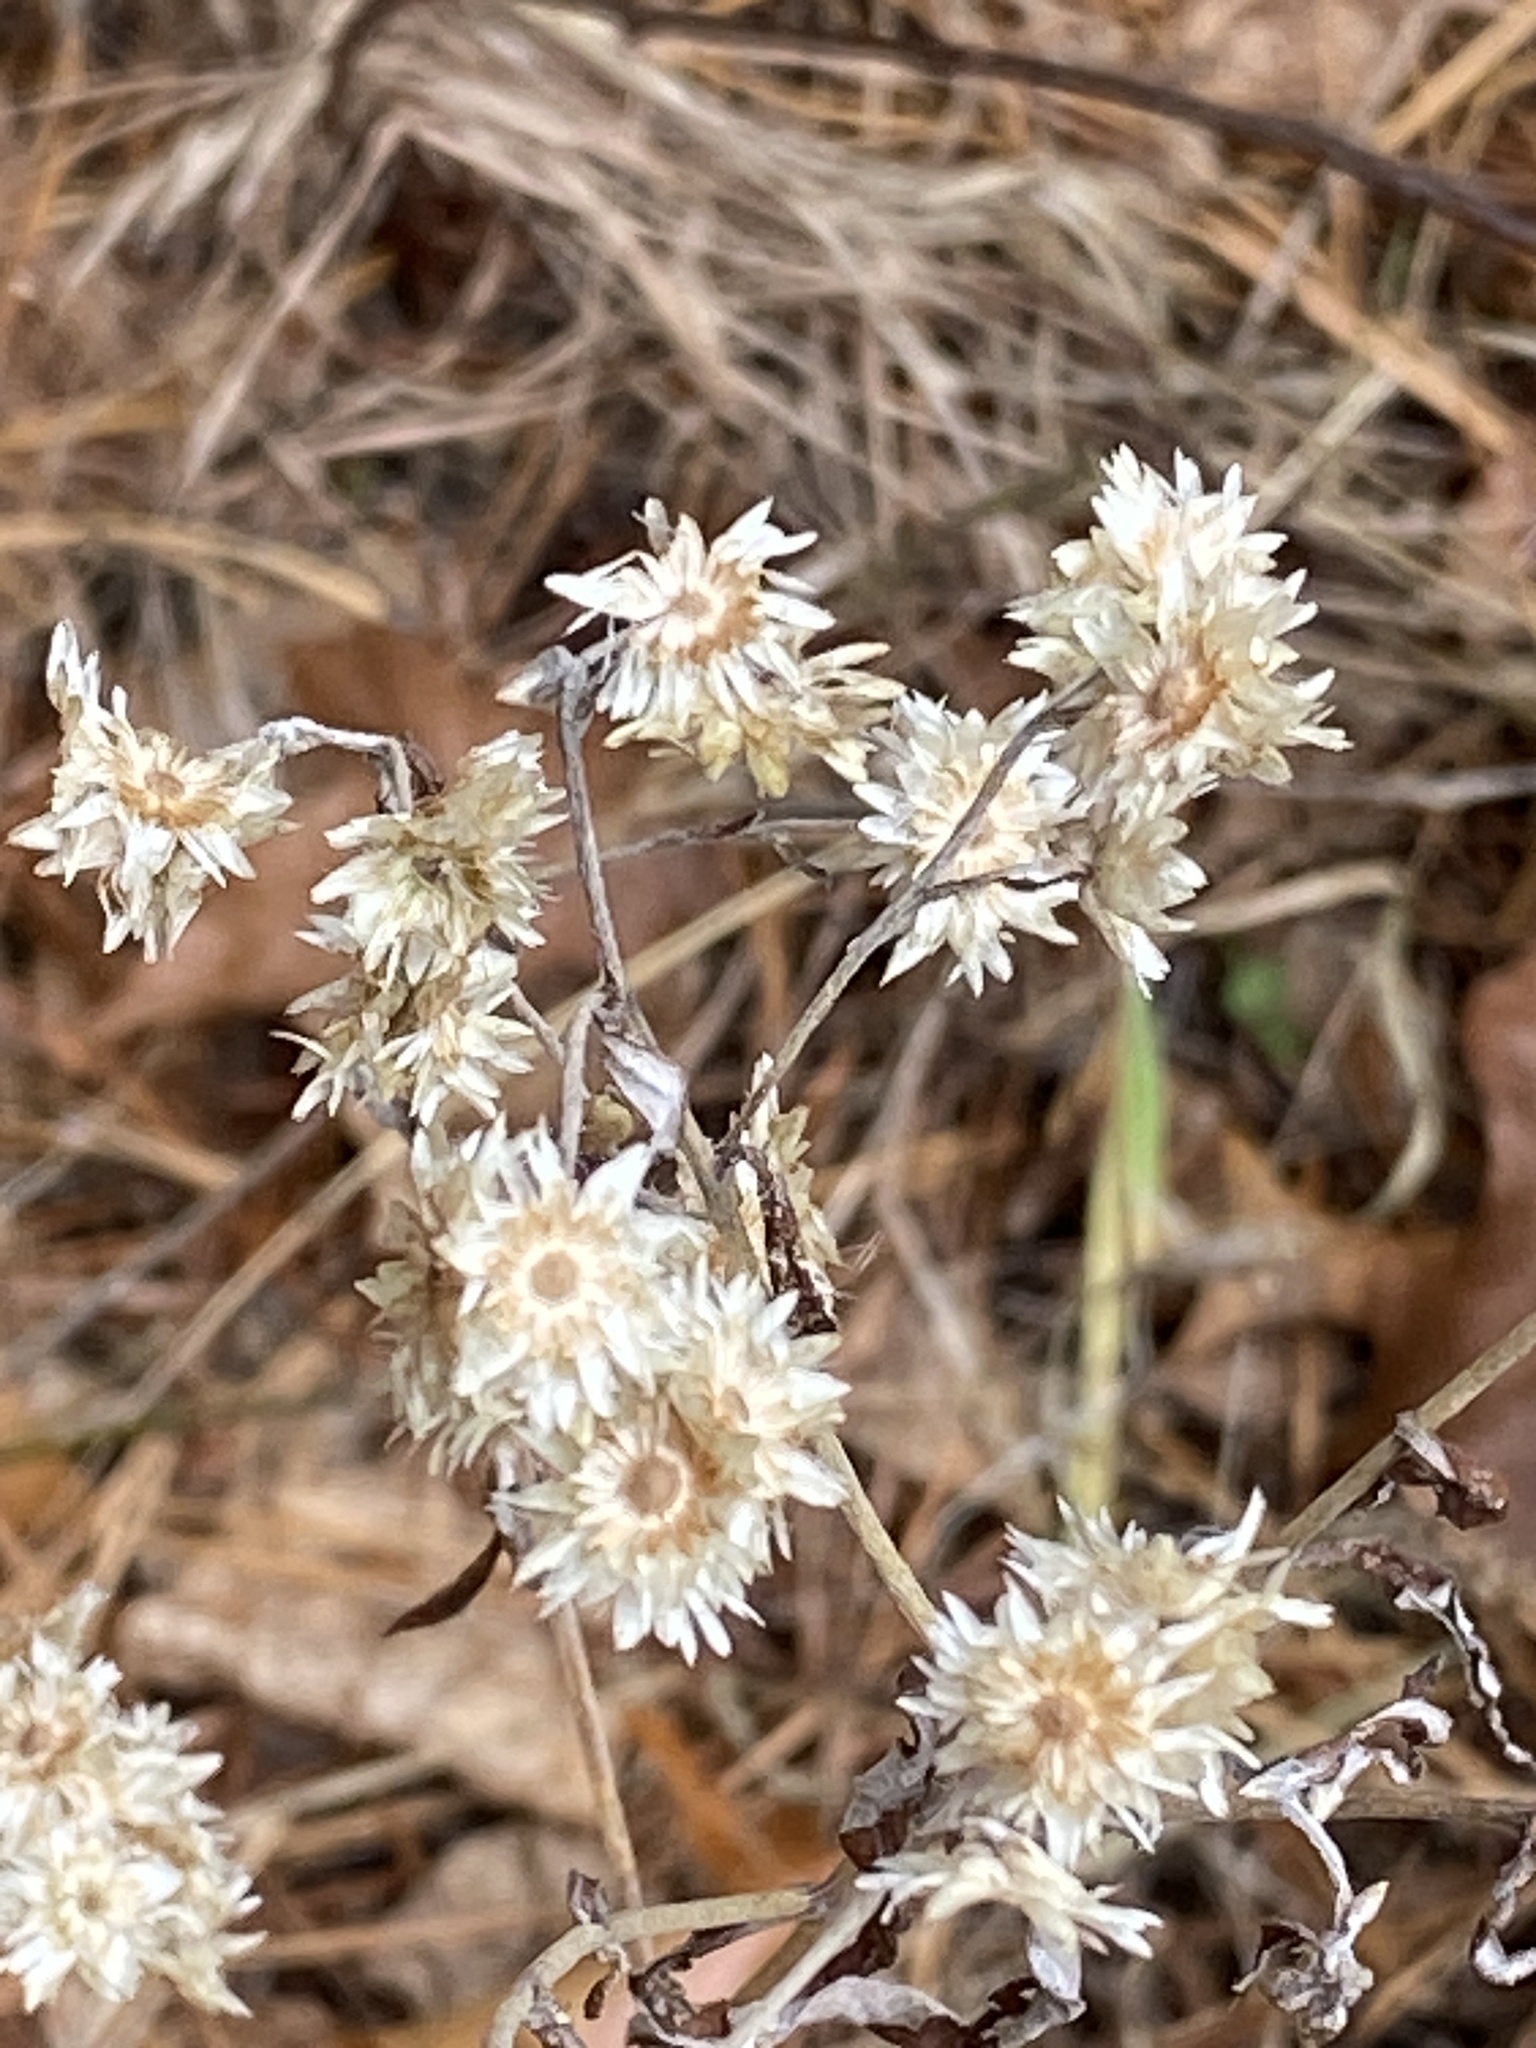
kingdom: Plantae
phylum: Tracheophyta
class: Magnoliopsida
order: Asterales
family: Asteraceae
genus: Pseudognaphalium
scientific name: Pseudognaphalium obtusifolium
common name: Eastern rabbit-tobacco
